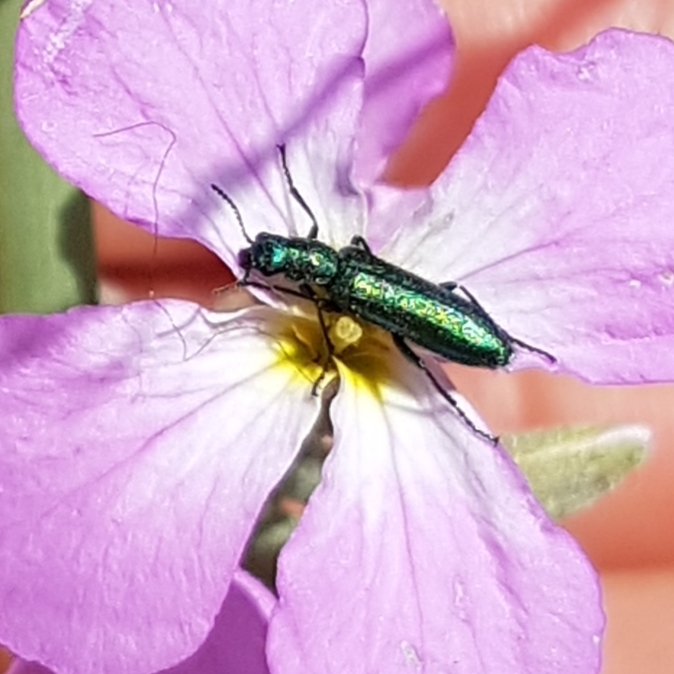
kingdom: Animalia
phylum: Arthropoda
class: Insecta
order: Coleoptera
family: Dasytidae
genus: Psilothrix
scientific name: Psilothrix viridicoerulea
